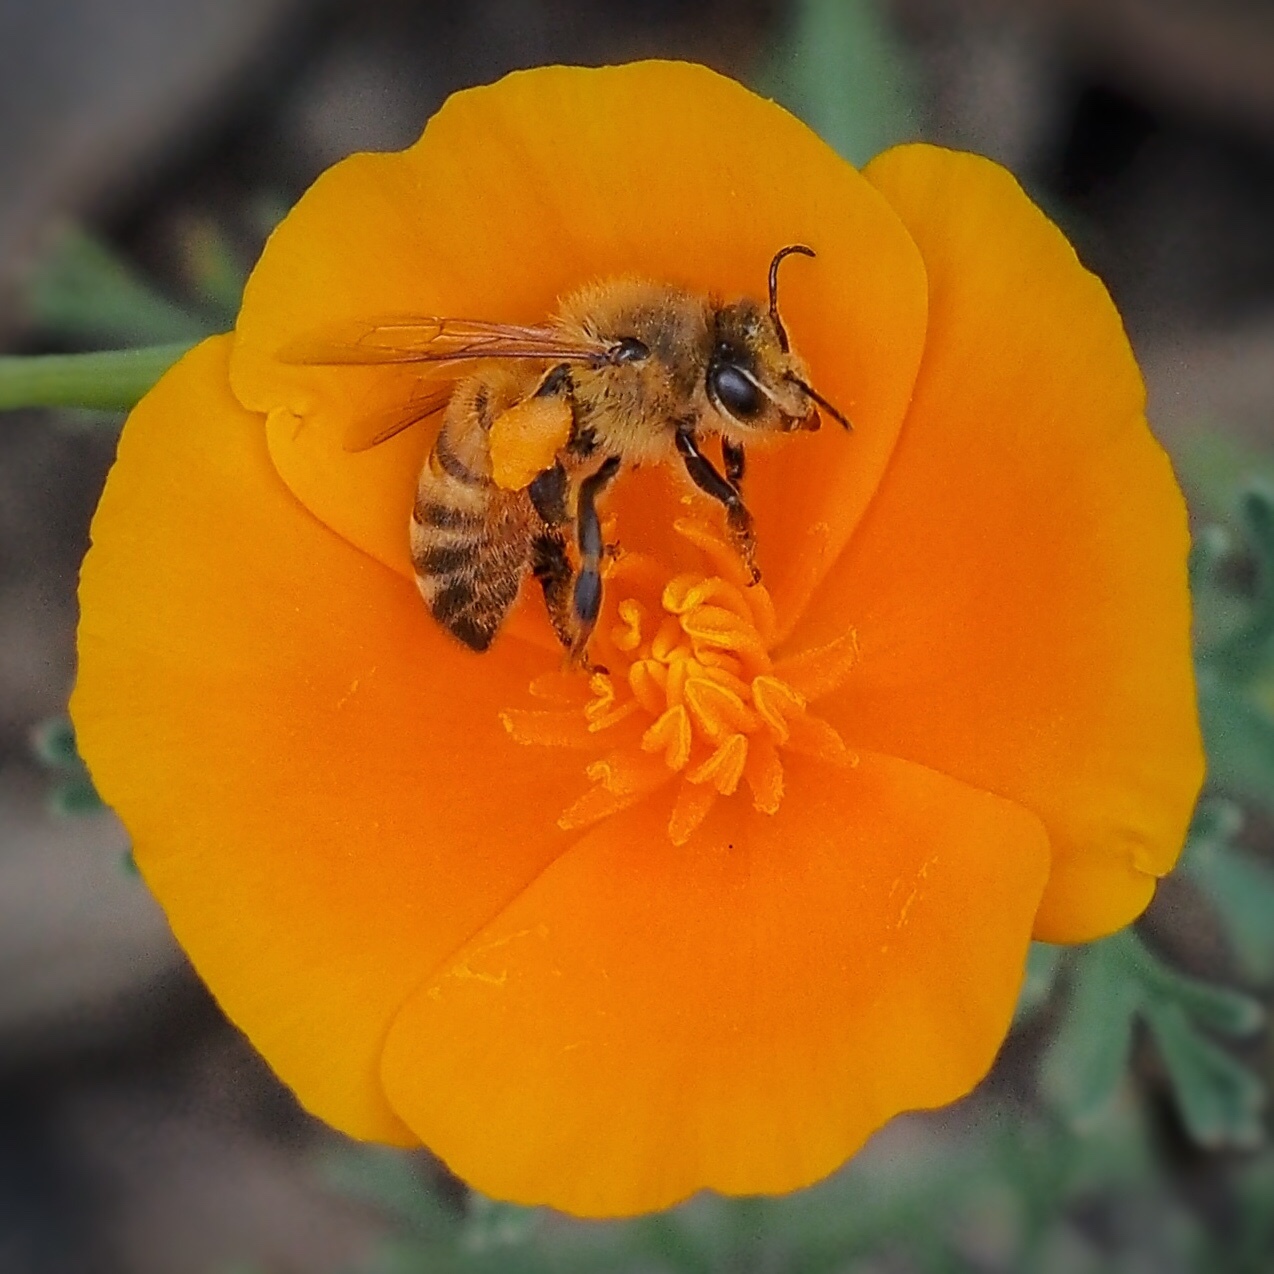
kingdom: Animalia
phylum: Arthropoda
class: Insecta
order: Hymenoptera
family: Apidae
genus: Apis
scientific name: Apis mellifera
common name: Honey bee
